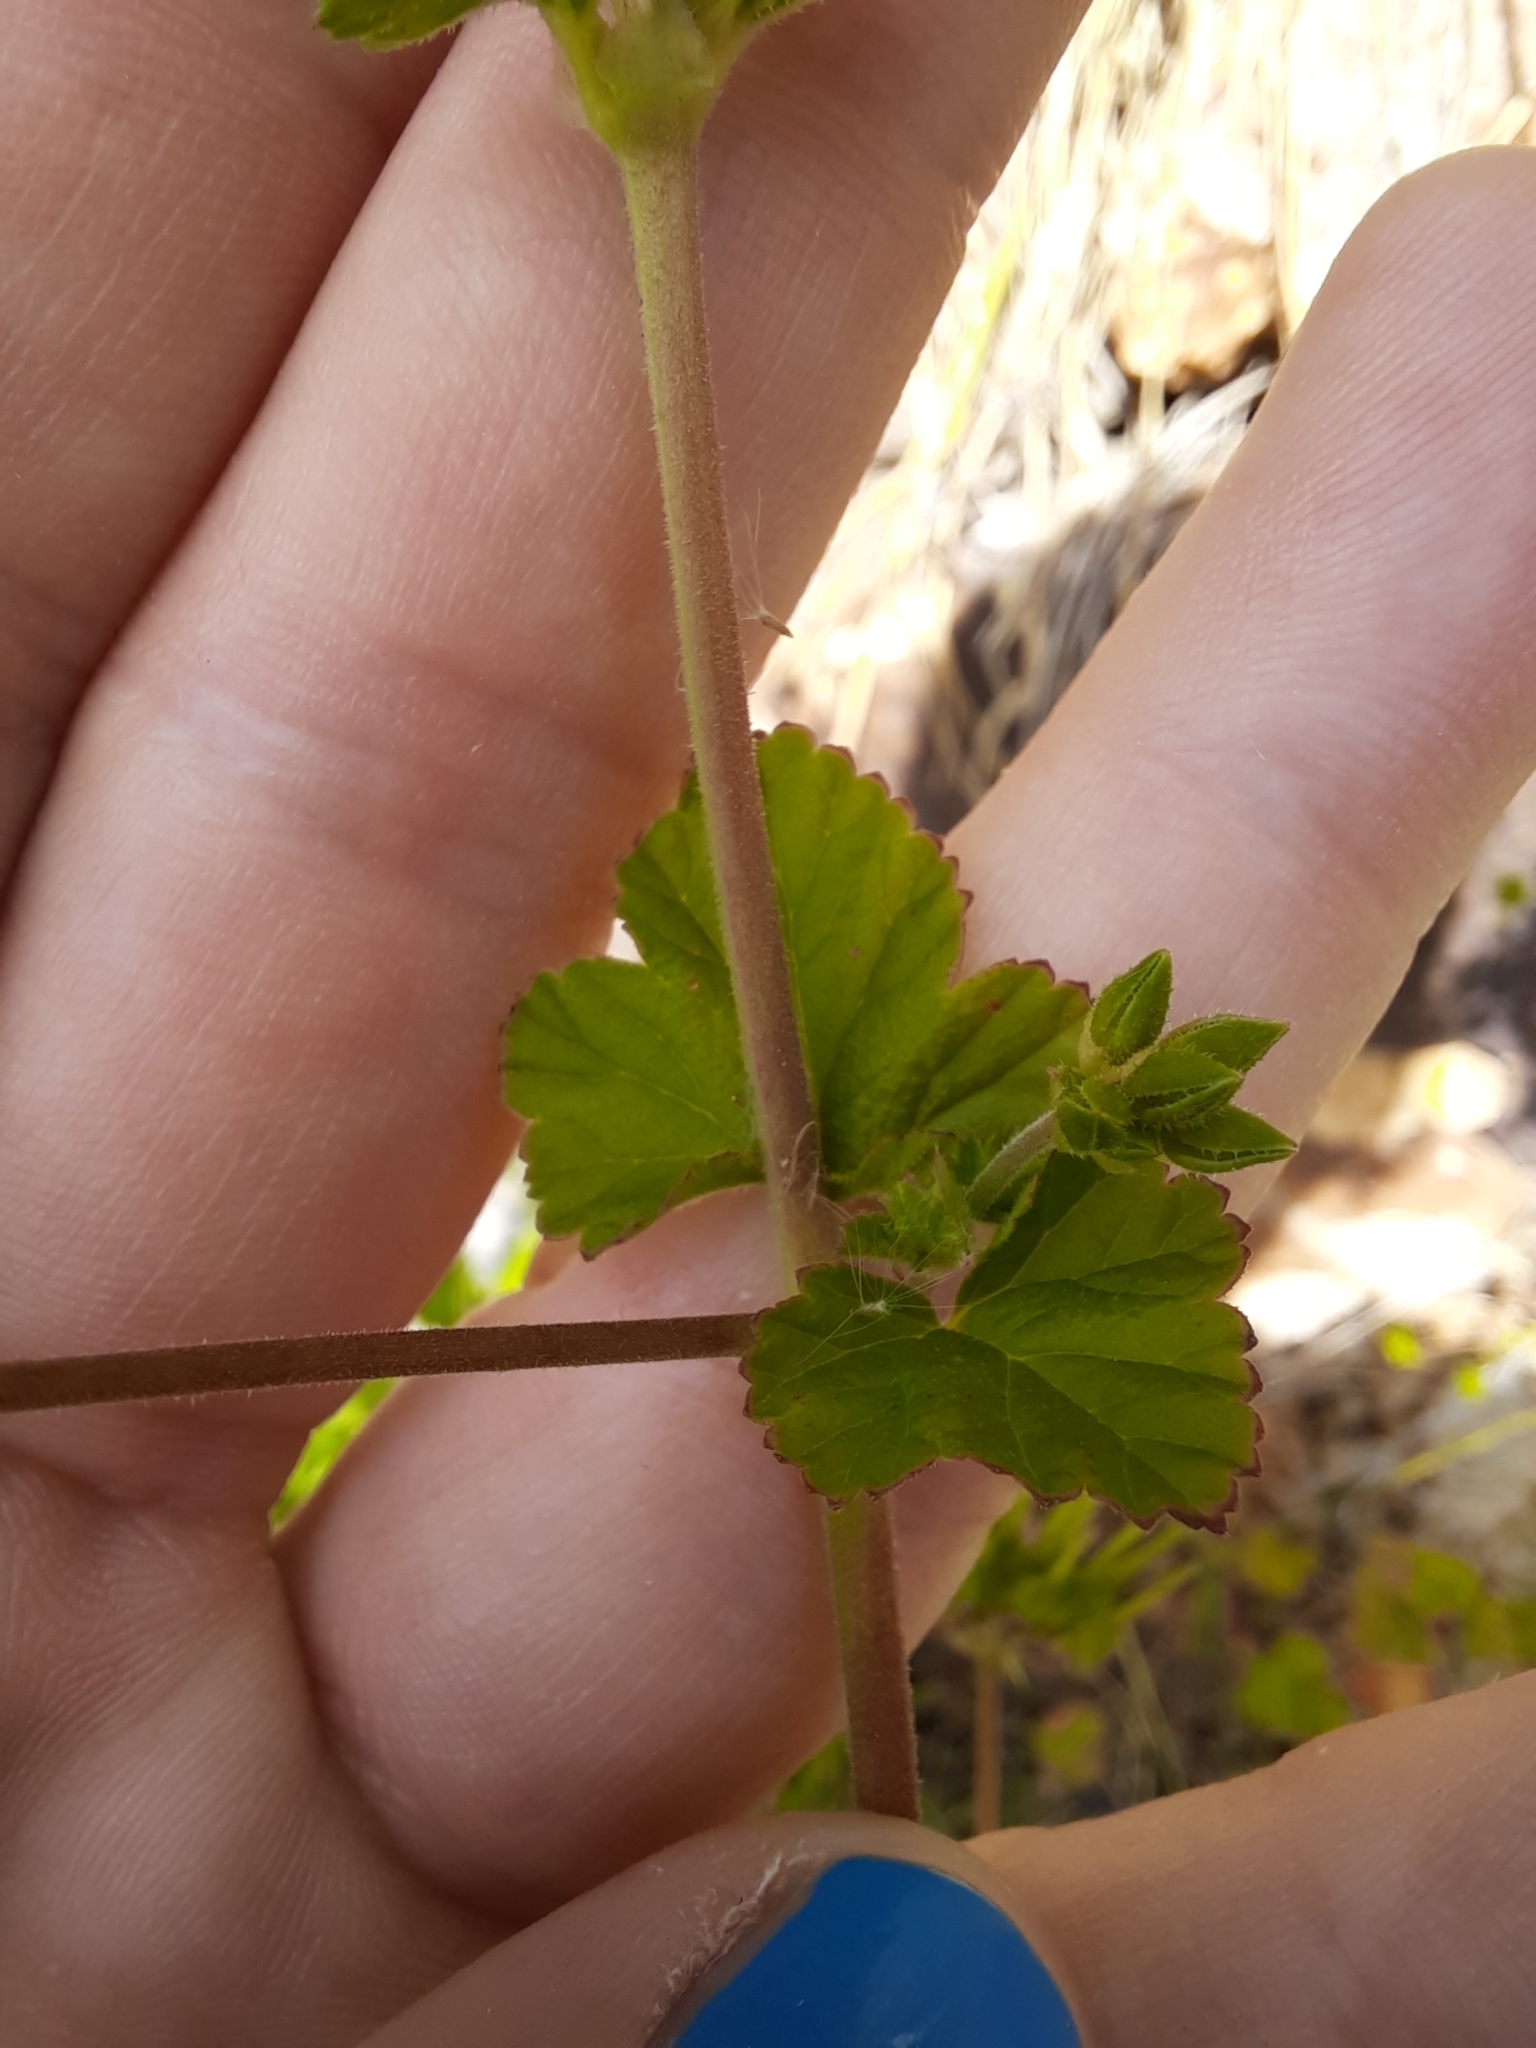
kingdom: Plantae
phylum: Tracheophyta
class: Magnoliopsida
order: Geraniales
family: Geraniaceae
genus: Pelargonium
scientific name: Pelargonium inodorum
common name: Kopata geranium
